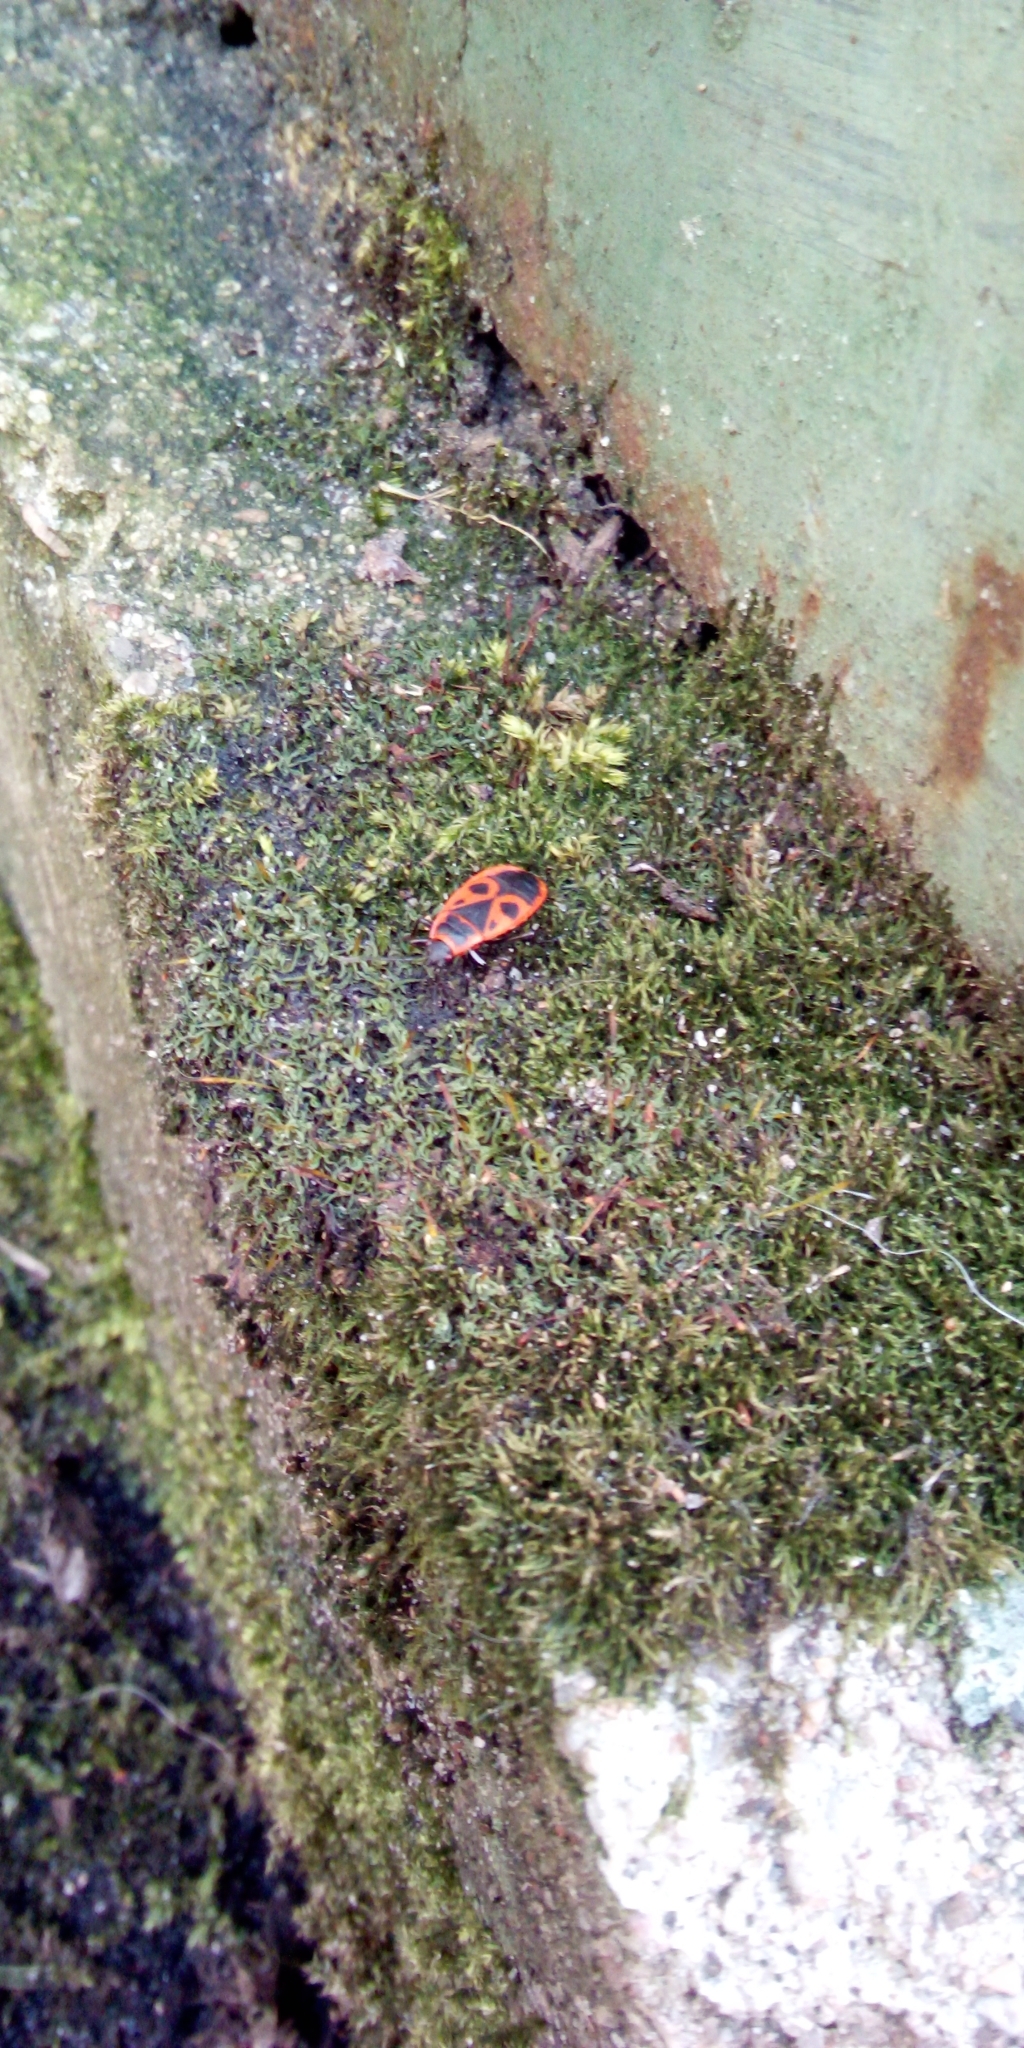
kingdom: Animalia
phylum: Arthropoda
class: Insecta
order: Hemiptera
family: Pyrrhocoridae
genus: Pyrrhocoris
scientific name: Pyrrhocoris apterus
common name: Firebug
